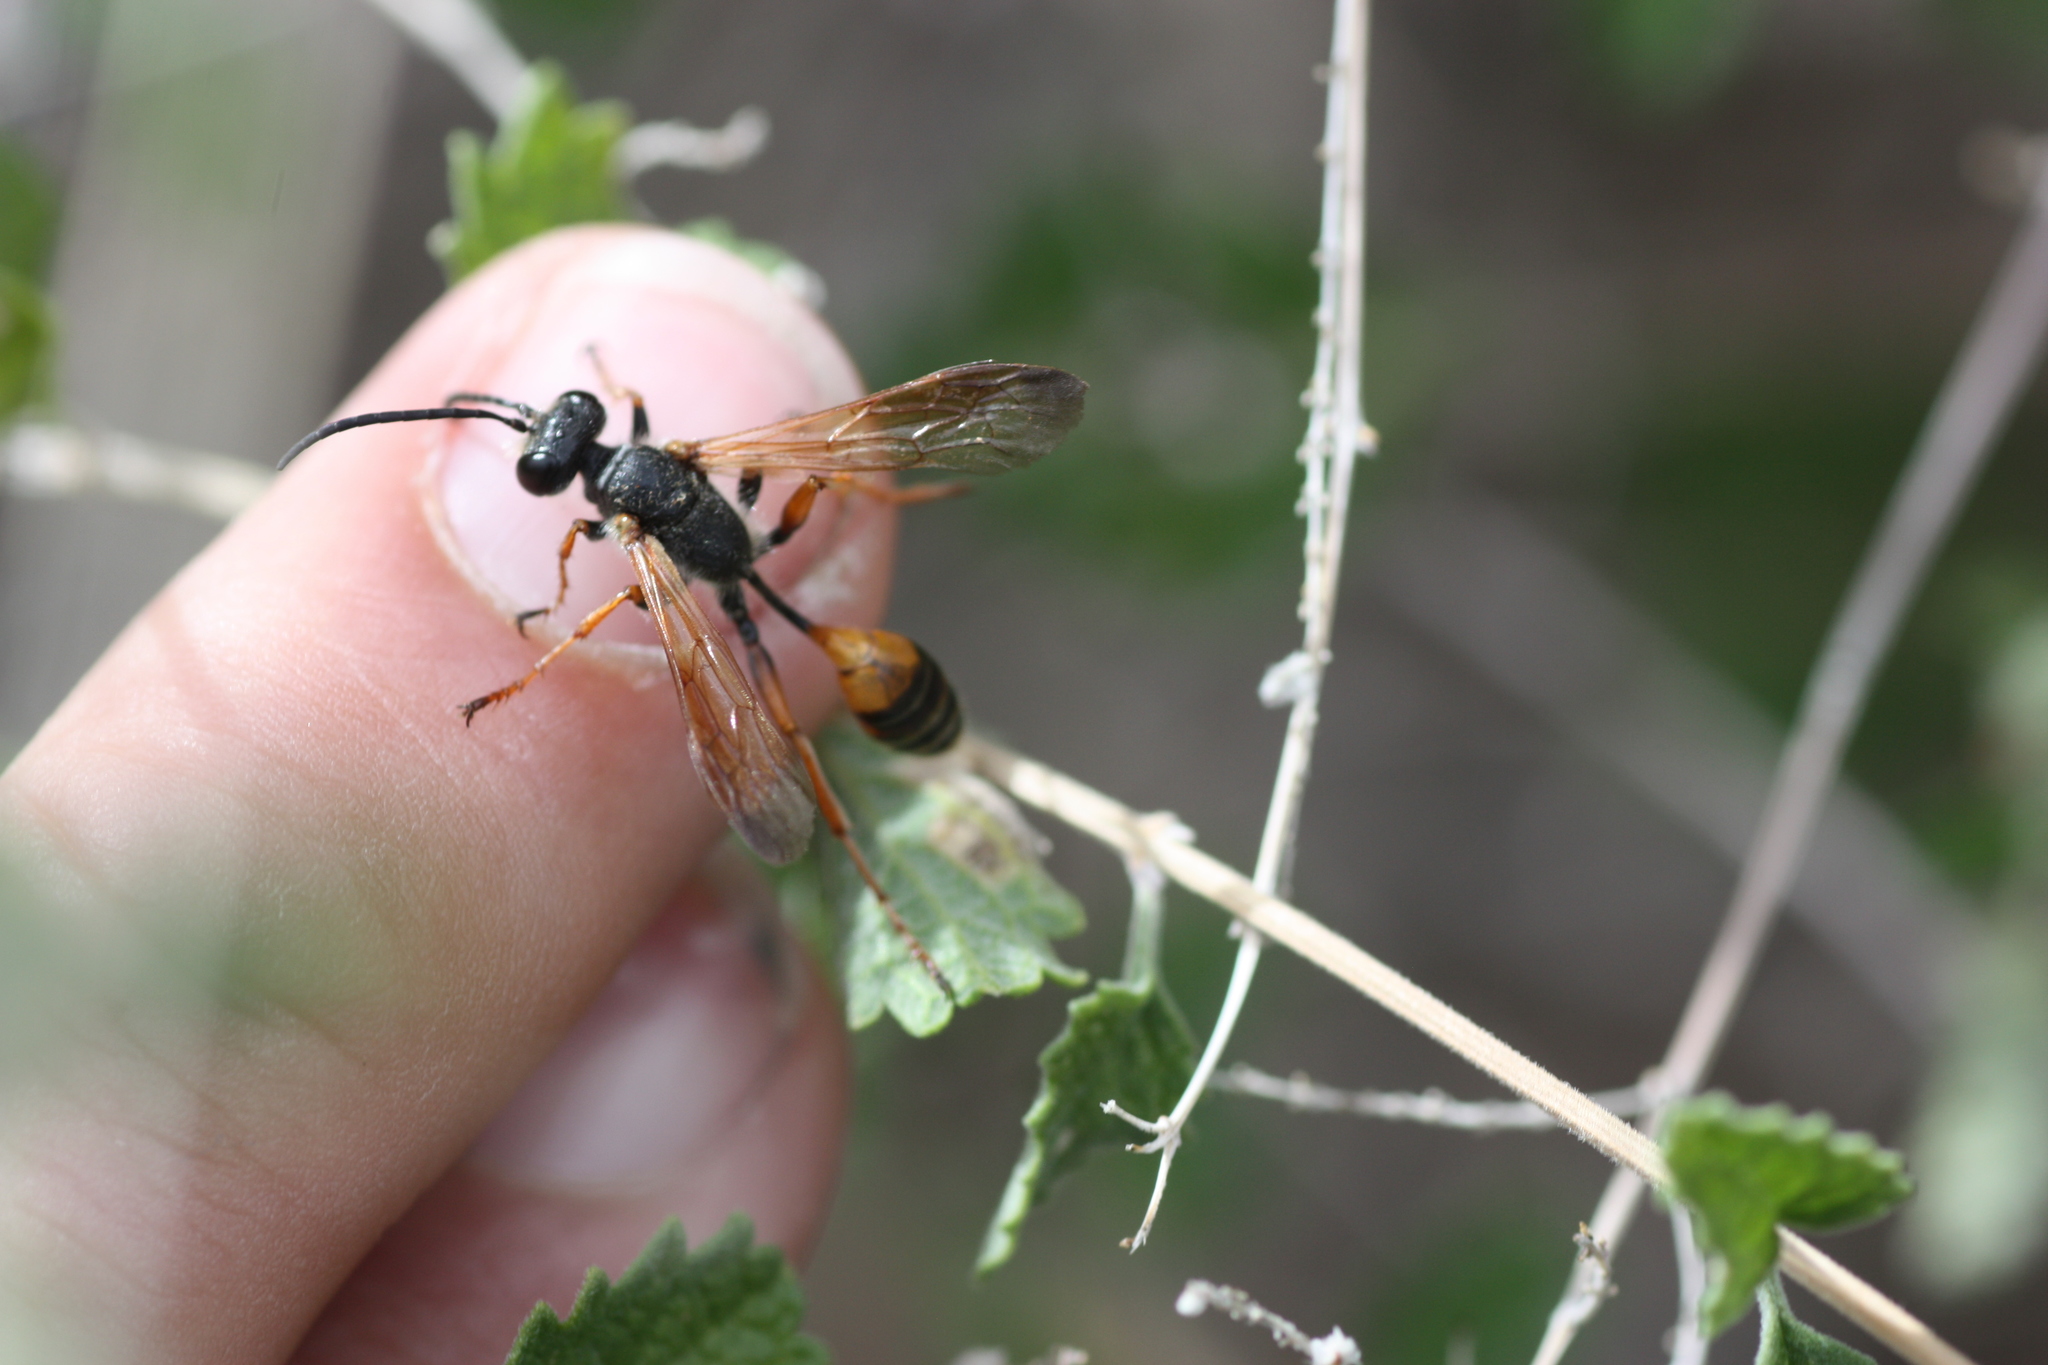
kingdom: Animalia
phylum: Arthropoda
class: Insecta
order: Hymenoptera
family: Sphecidae
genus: Isodontia
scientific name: Isodontia elegans
